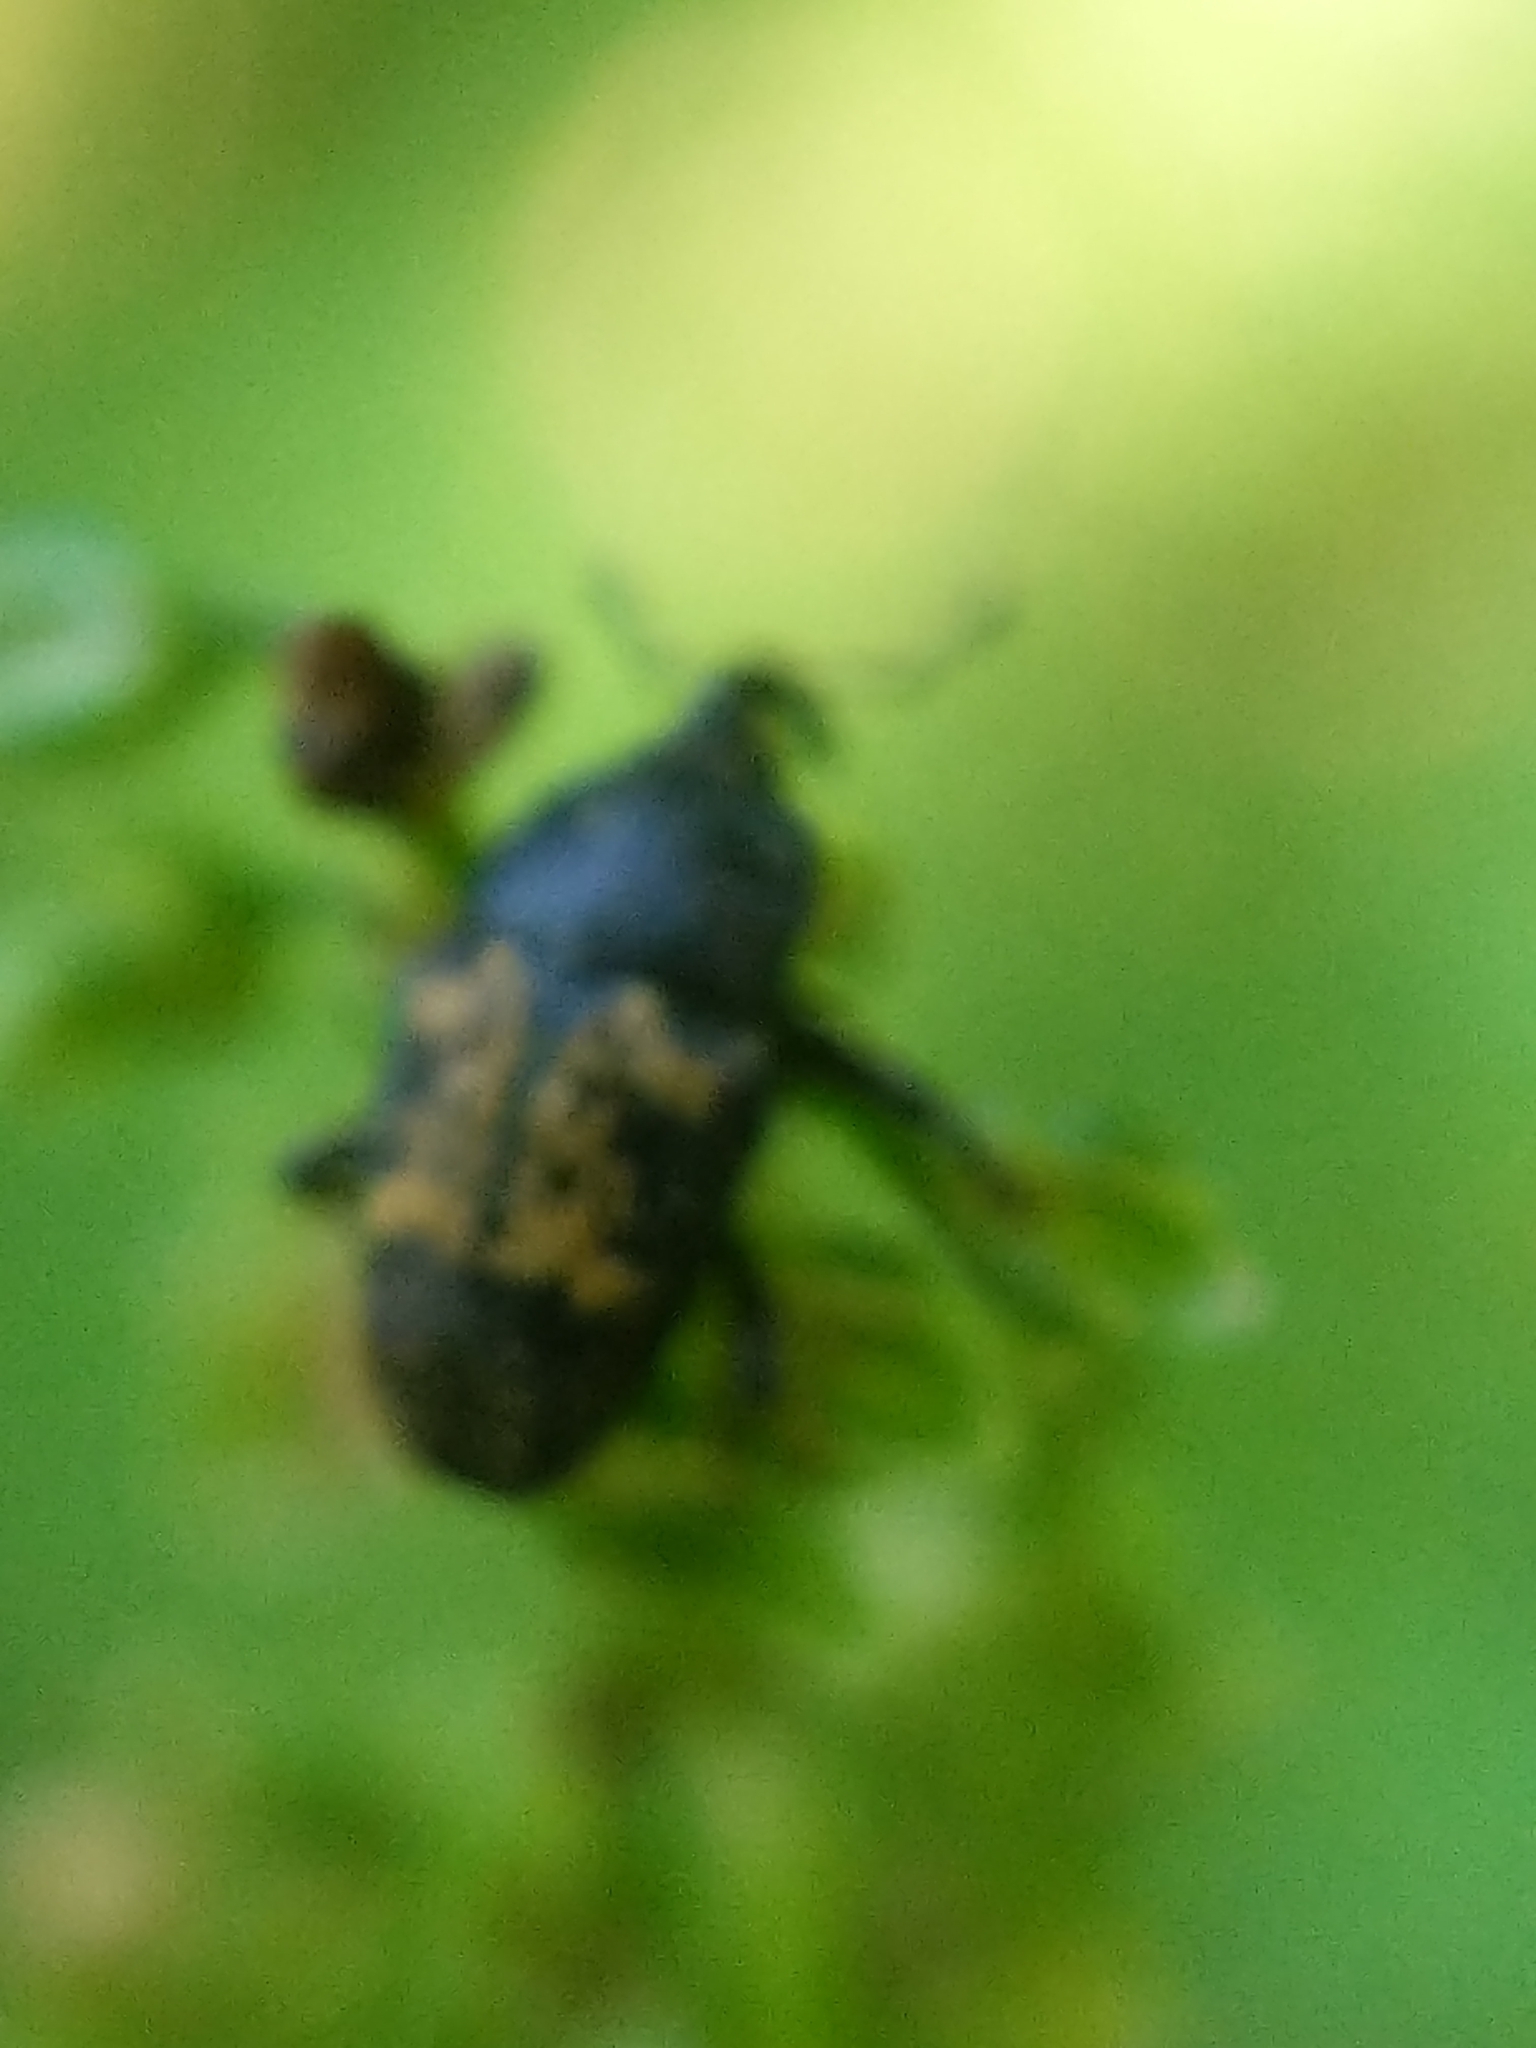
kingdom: Animalia
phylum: Arthropoda
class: Insecta
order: Coleoptera
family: Curculionidae
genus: Glyptobaris
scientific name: Glyptobaris lecontei
